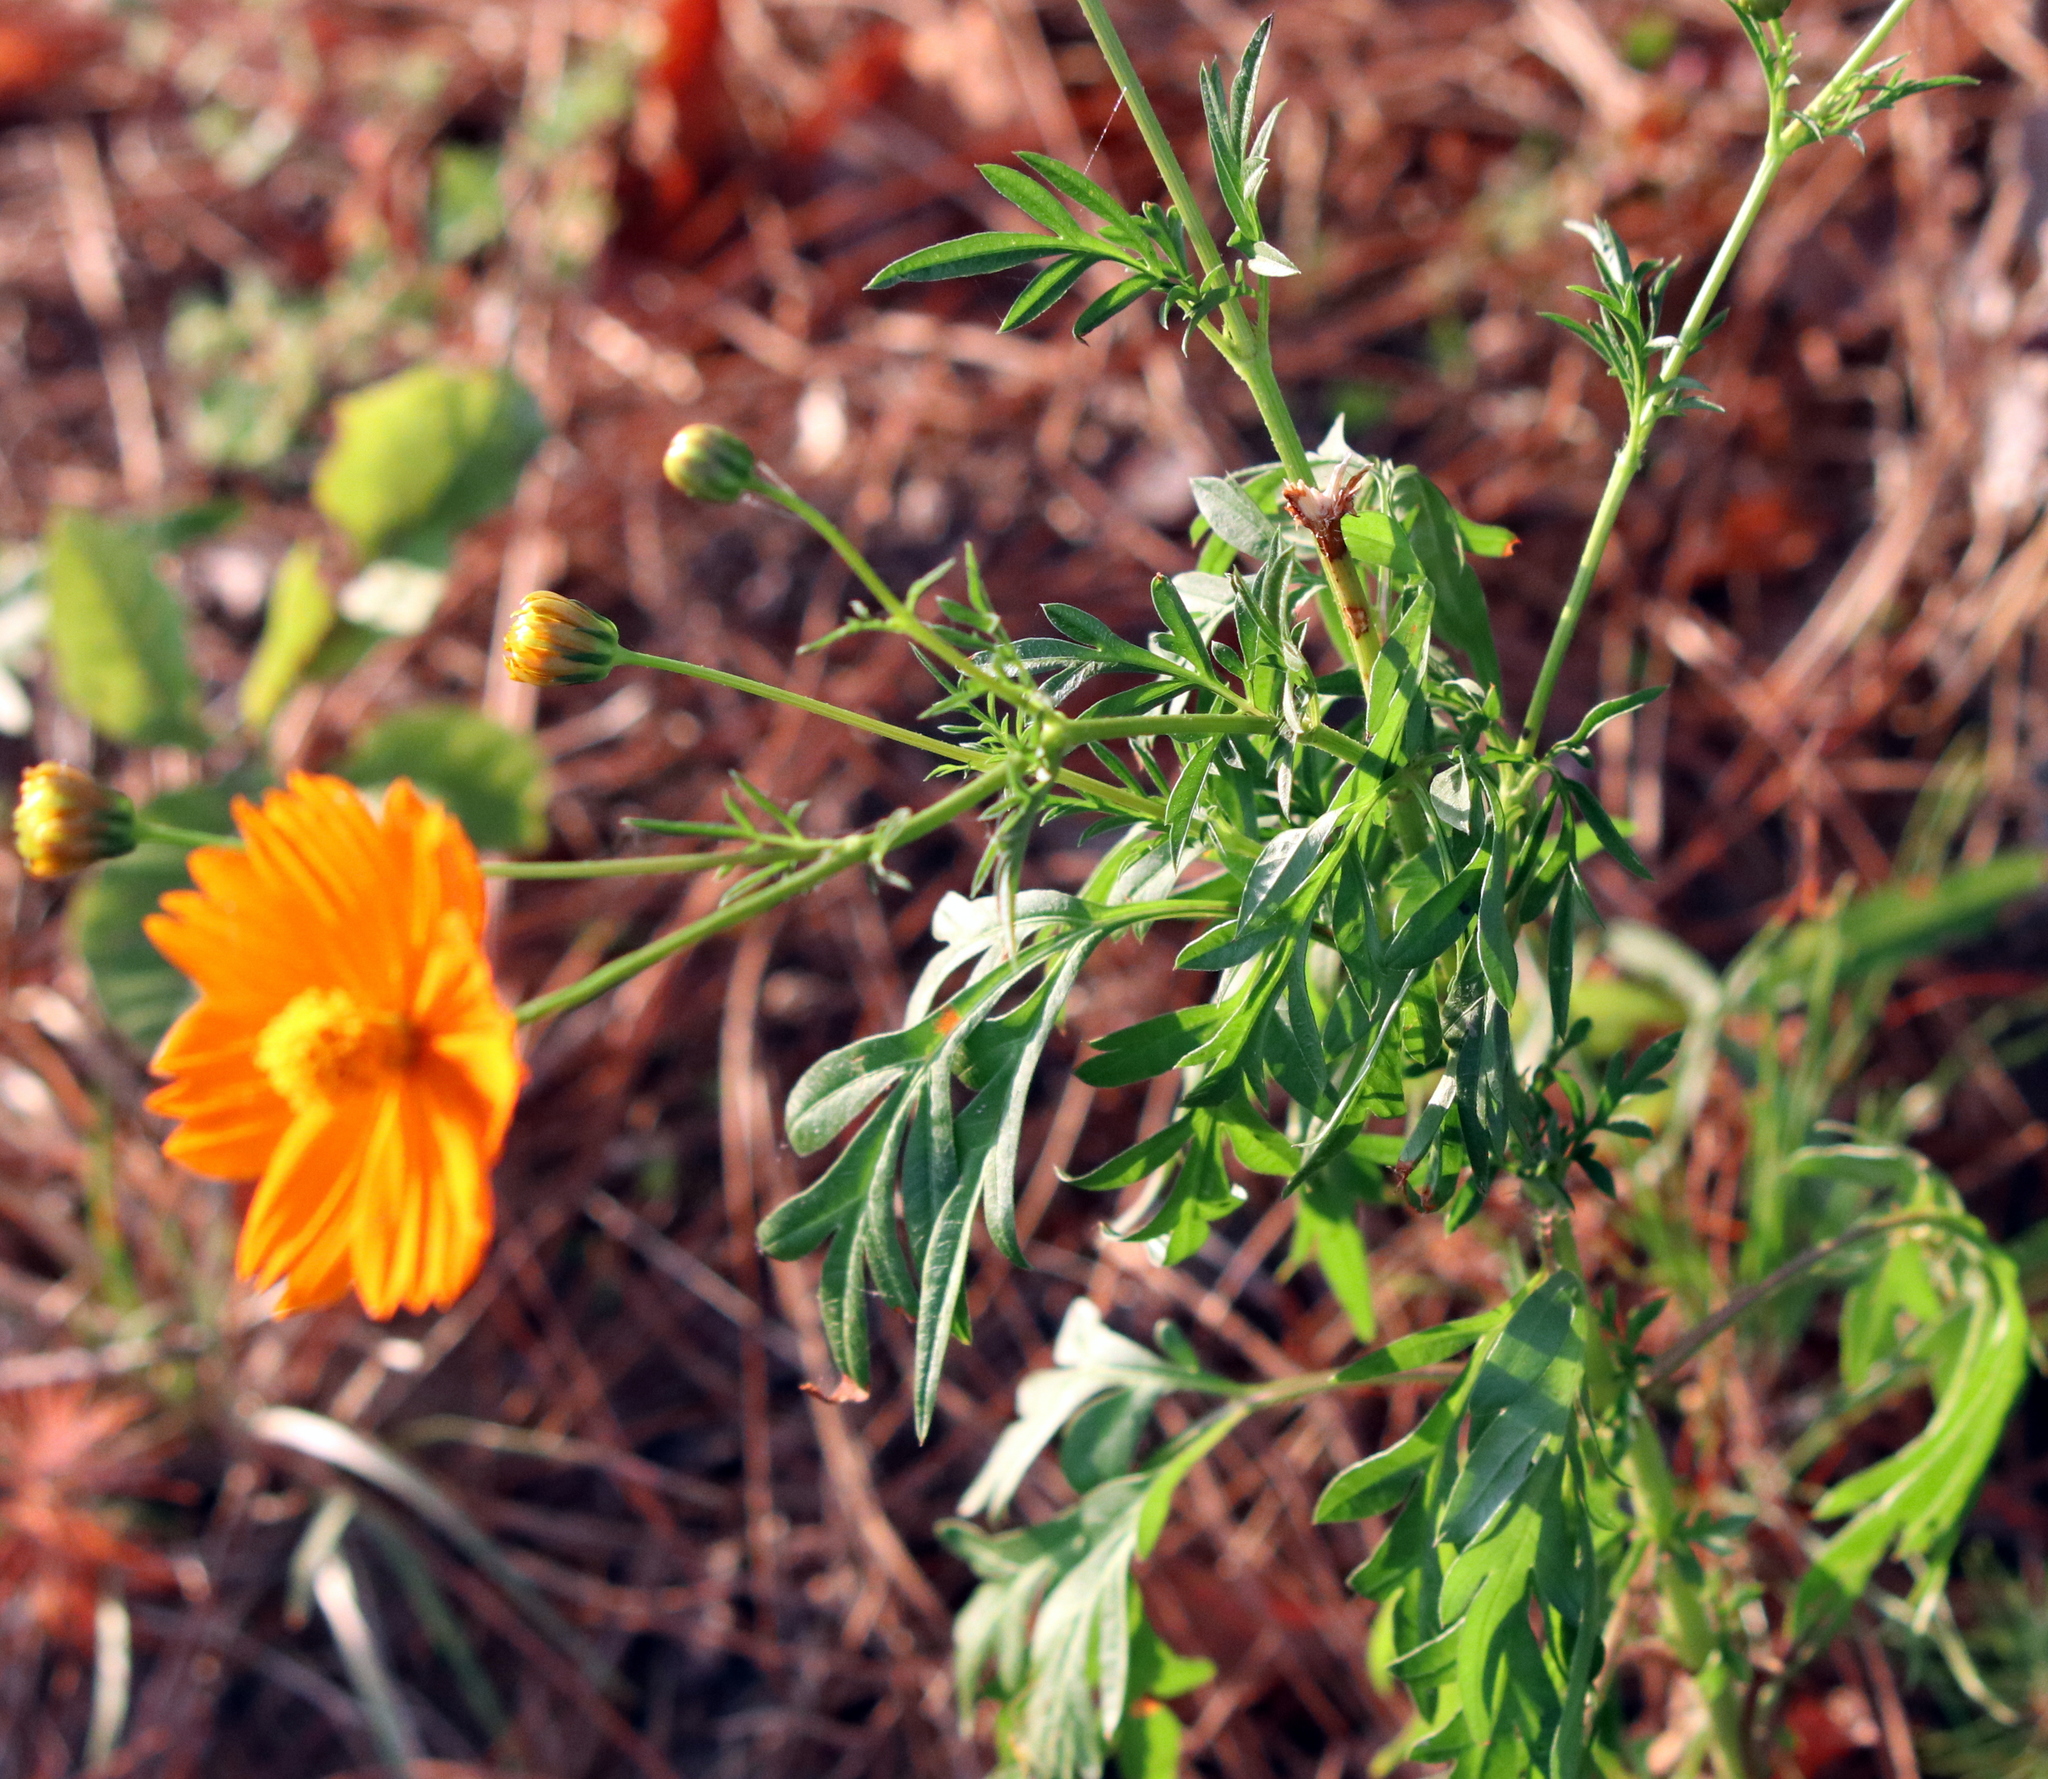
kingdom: Plantae
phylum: Tracheophyta
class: Magnoliopsida
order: Asterales
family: Asteraceae
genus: Cosmos
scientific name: Cosmos sulphureus
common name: Sulphur cosmos
